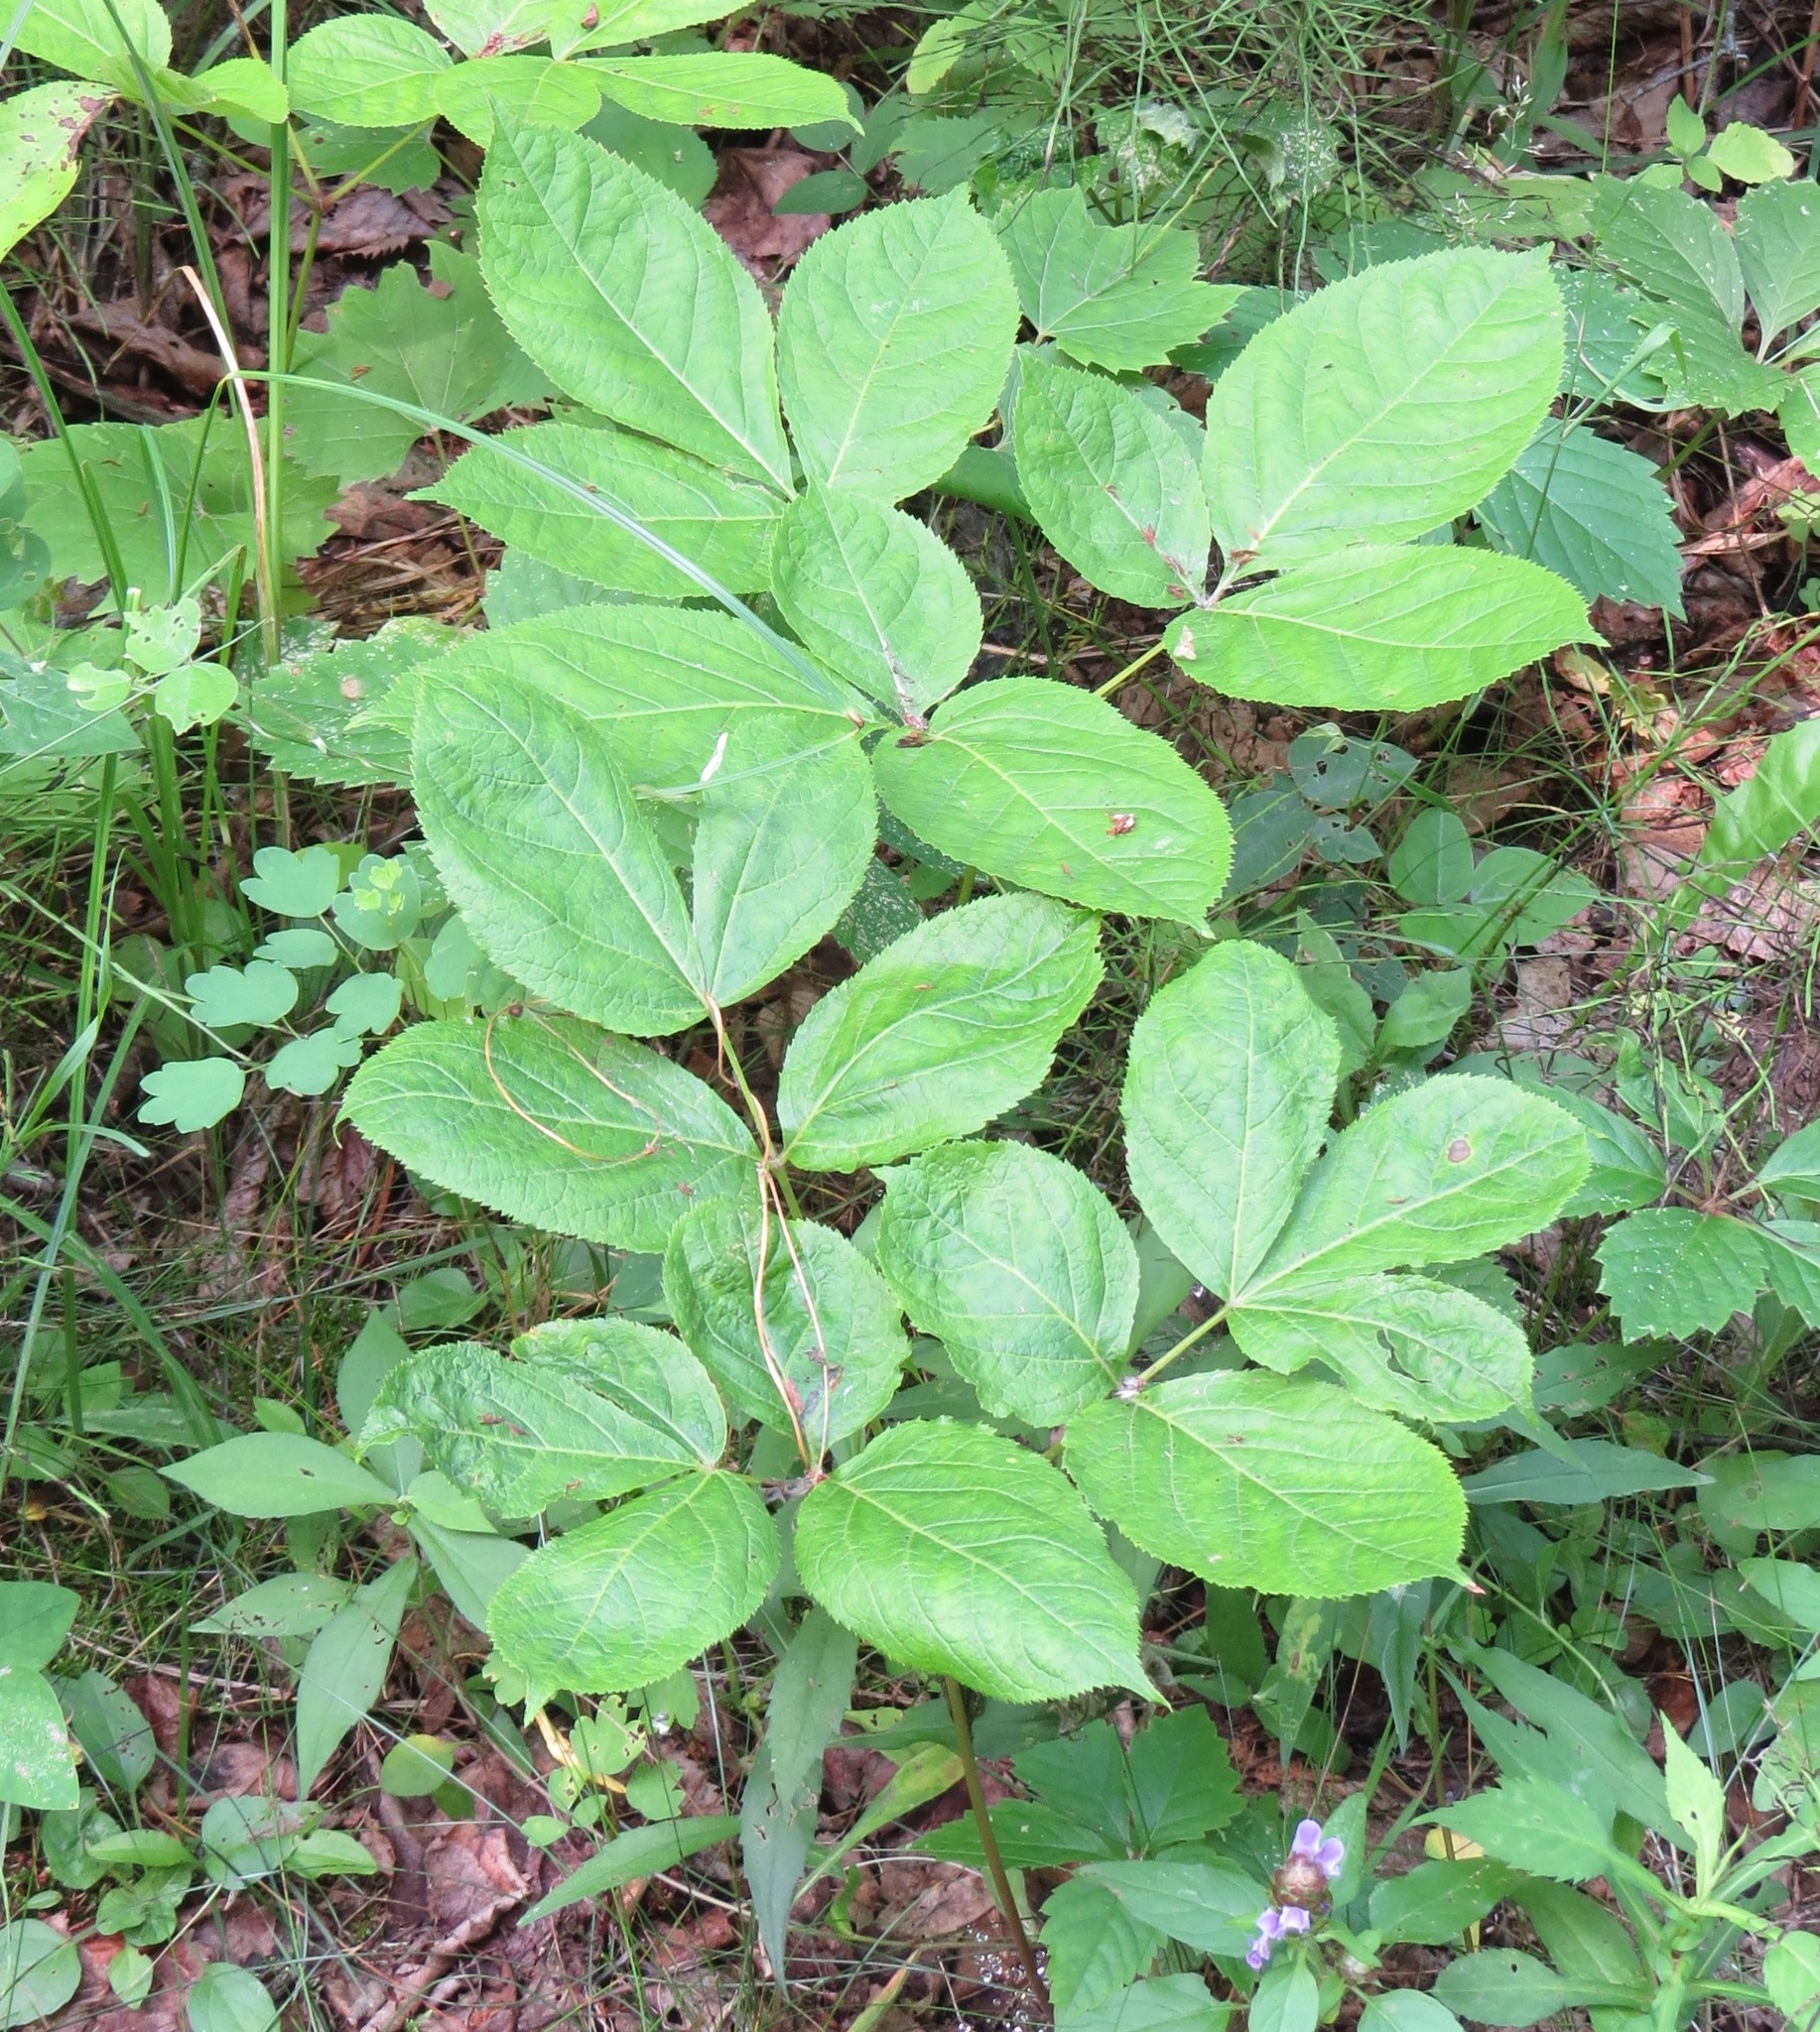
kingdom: Plantae
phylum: Tracheophyta
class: Magnoliopsida
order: Apiales
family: Araliaceae
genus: Aralia
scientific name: Aralia nudicaulis
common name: Wild sarsaparilla
